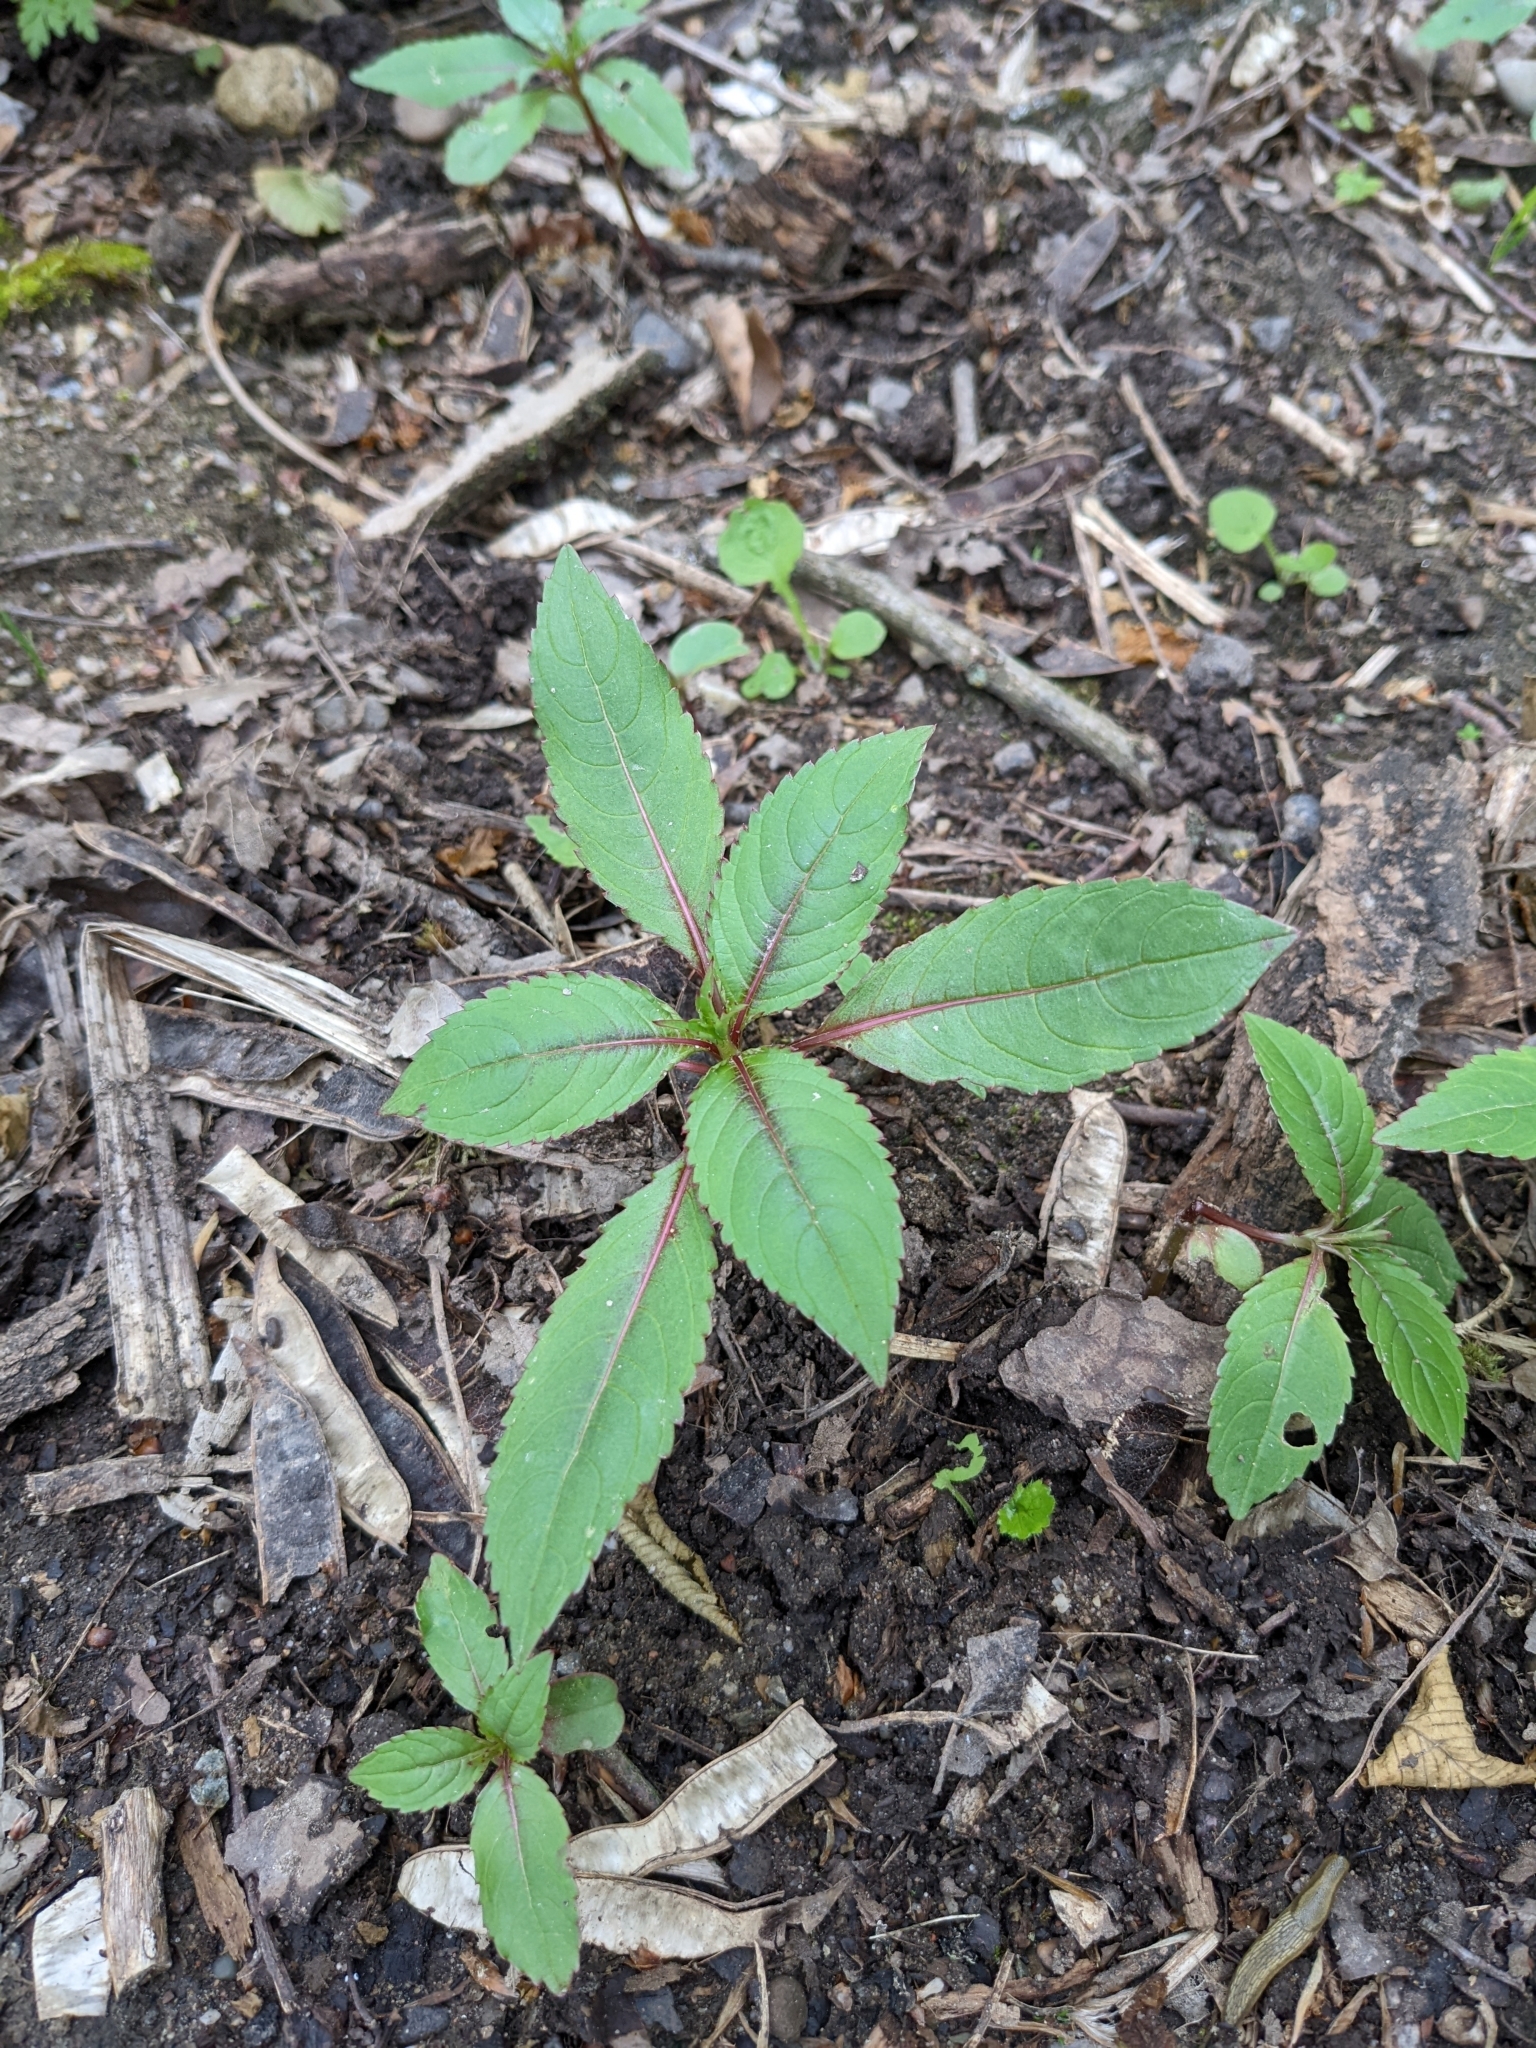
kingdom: Plantae
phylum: Tracheophyta
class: Magnoliopsida
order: Ericales
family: Balsaminaceae
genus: Impatiens
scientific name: Impatiens glandulifera
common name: Himalayan balsam
